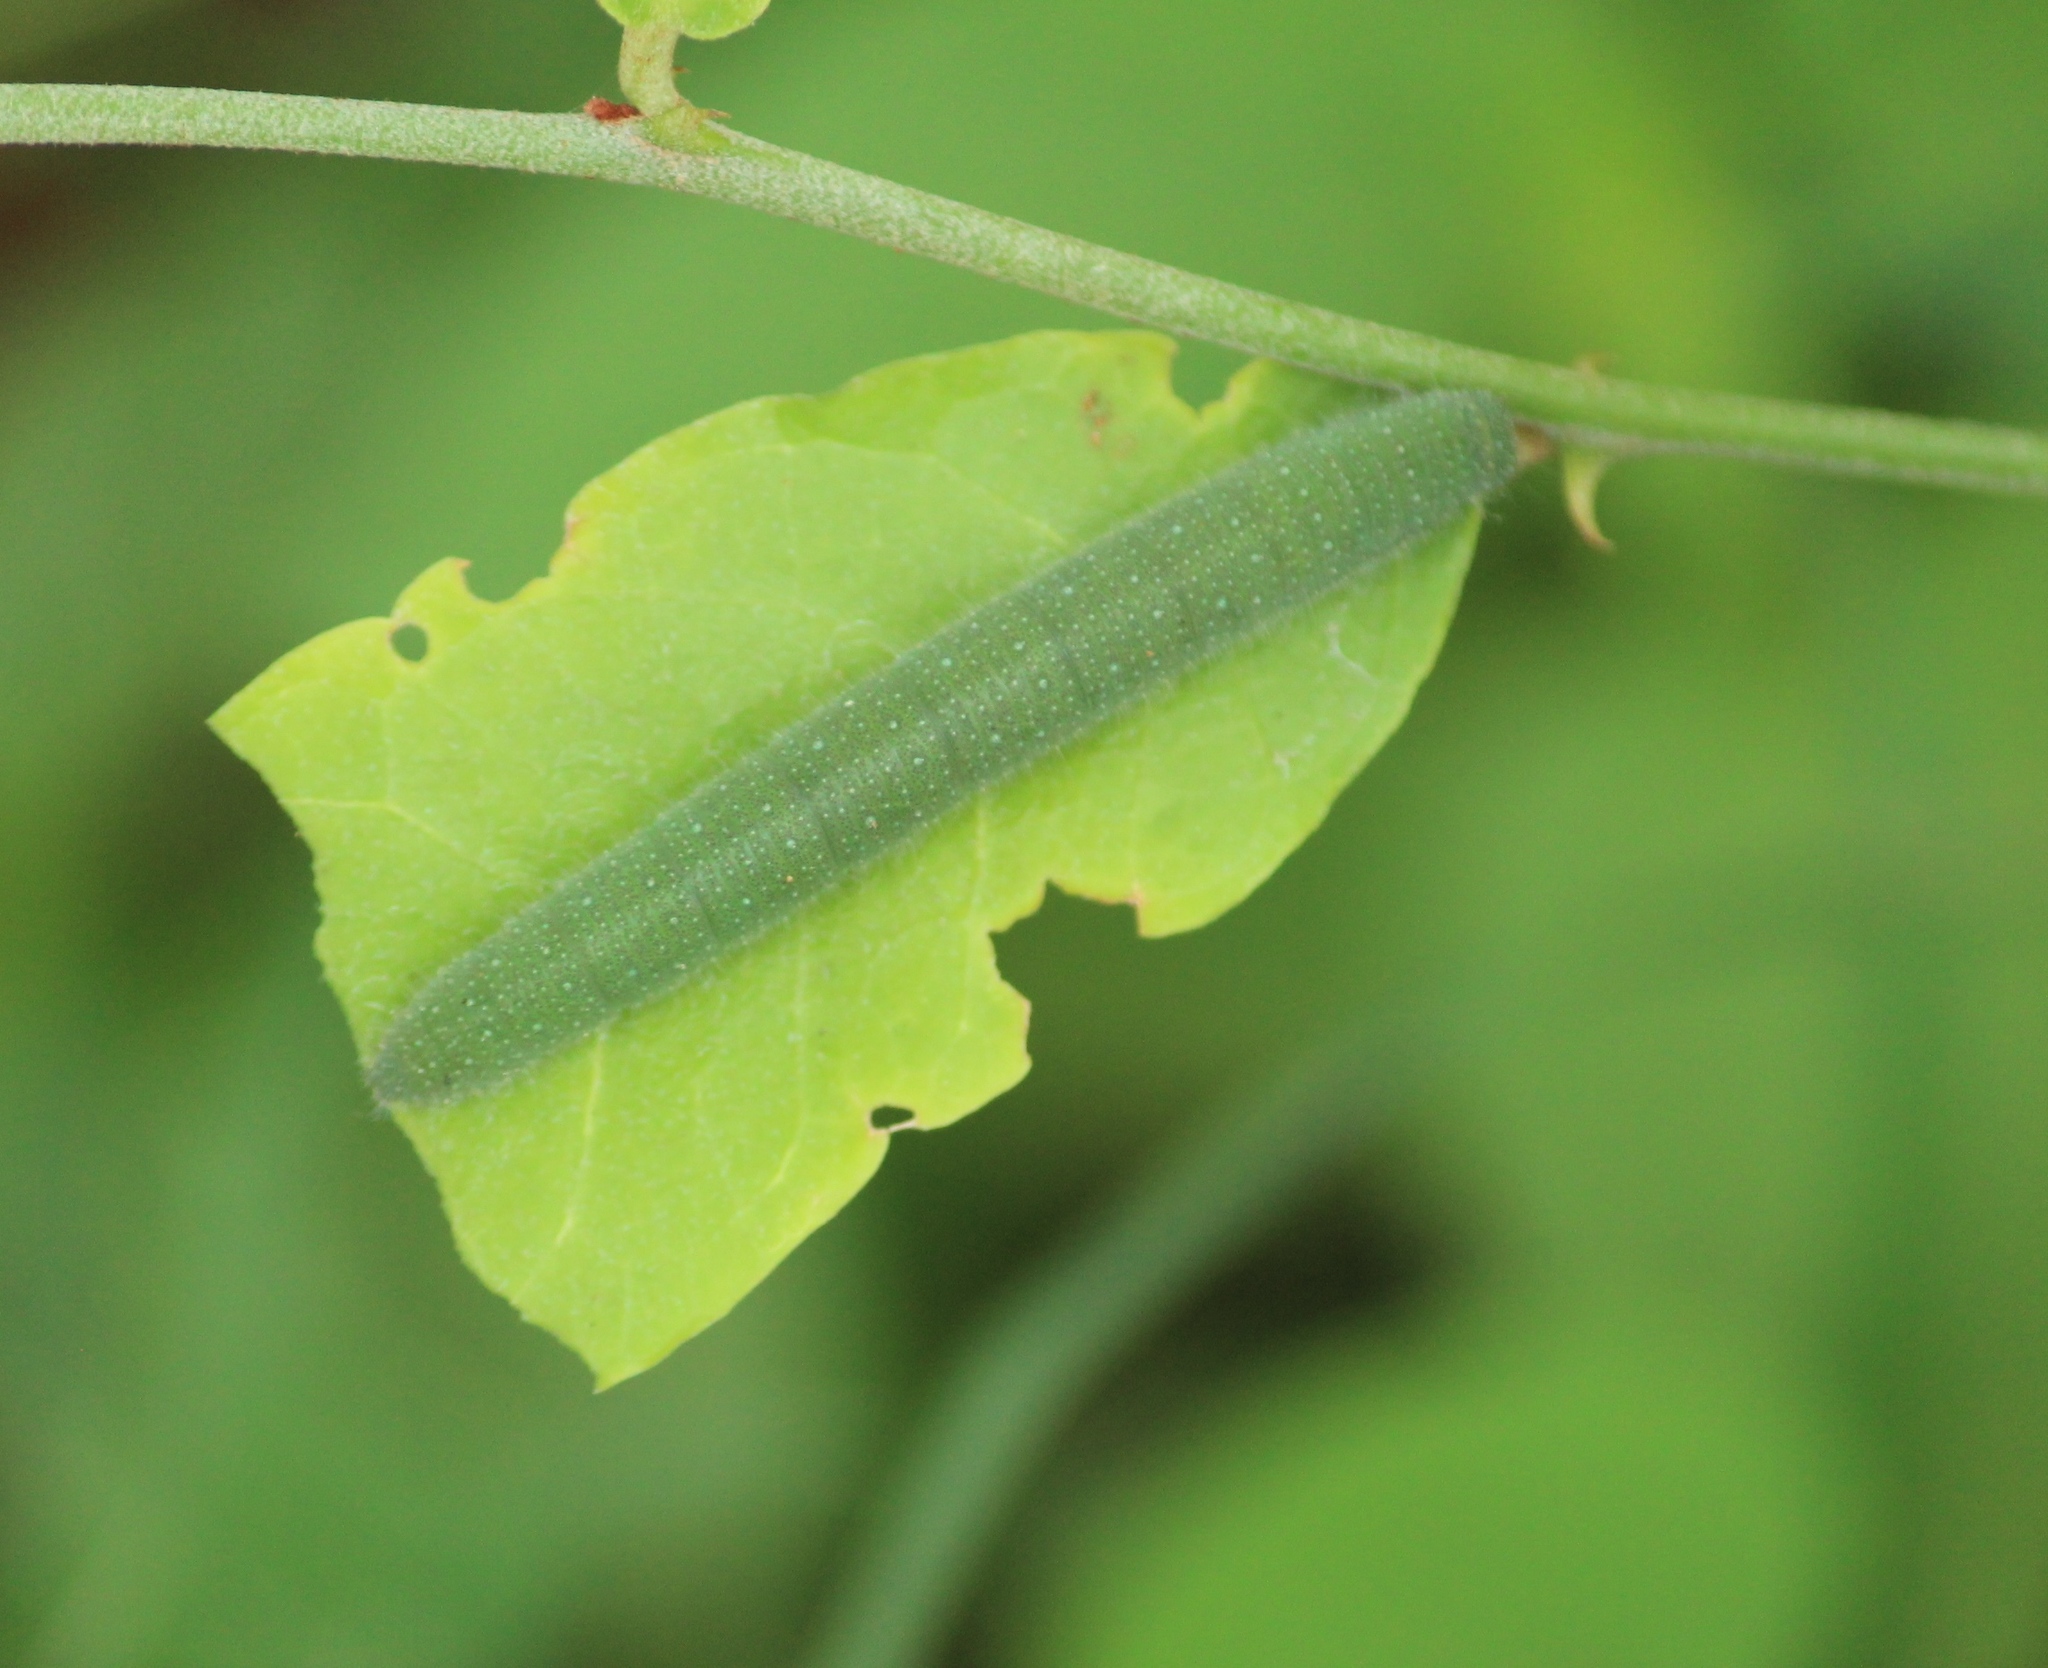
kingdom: Animalia
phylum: Arthropoda
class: Insecta
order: Lepidoptera
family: Pieridae
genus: Cepora
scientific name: Cepora nerissa
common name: Common gull
